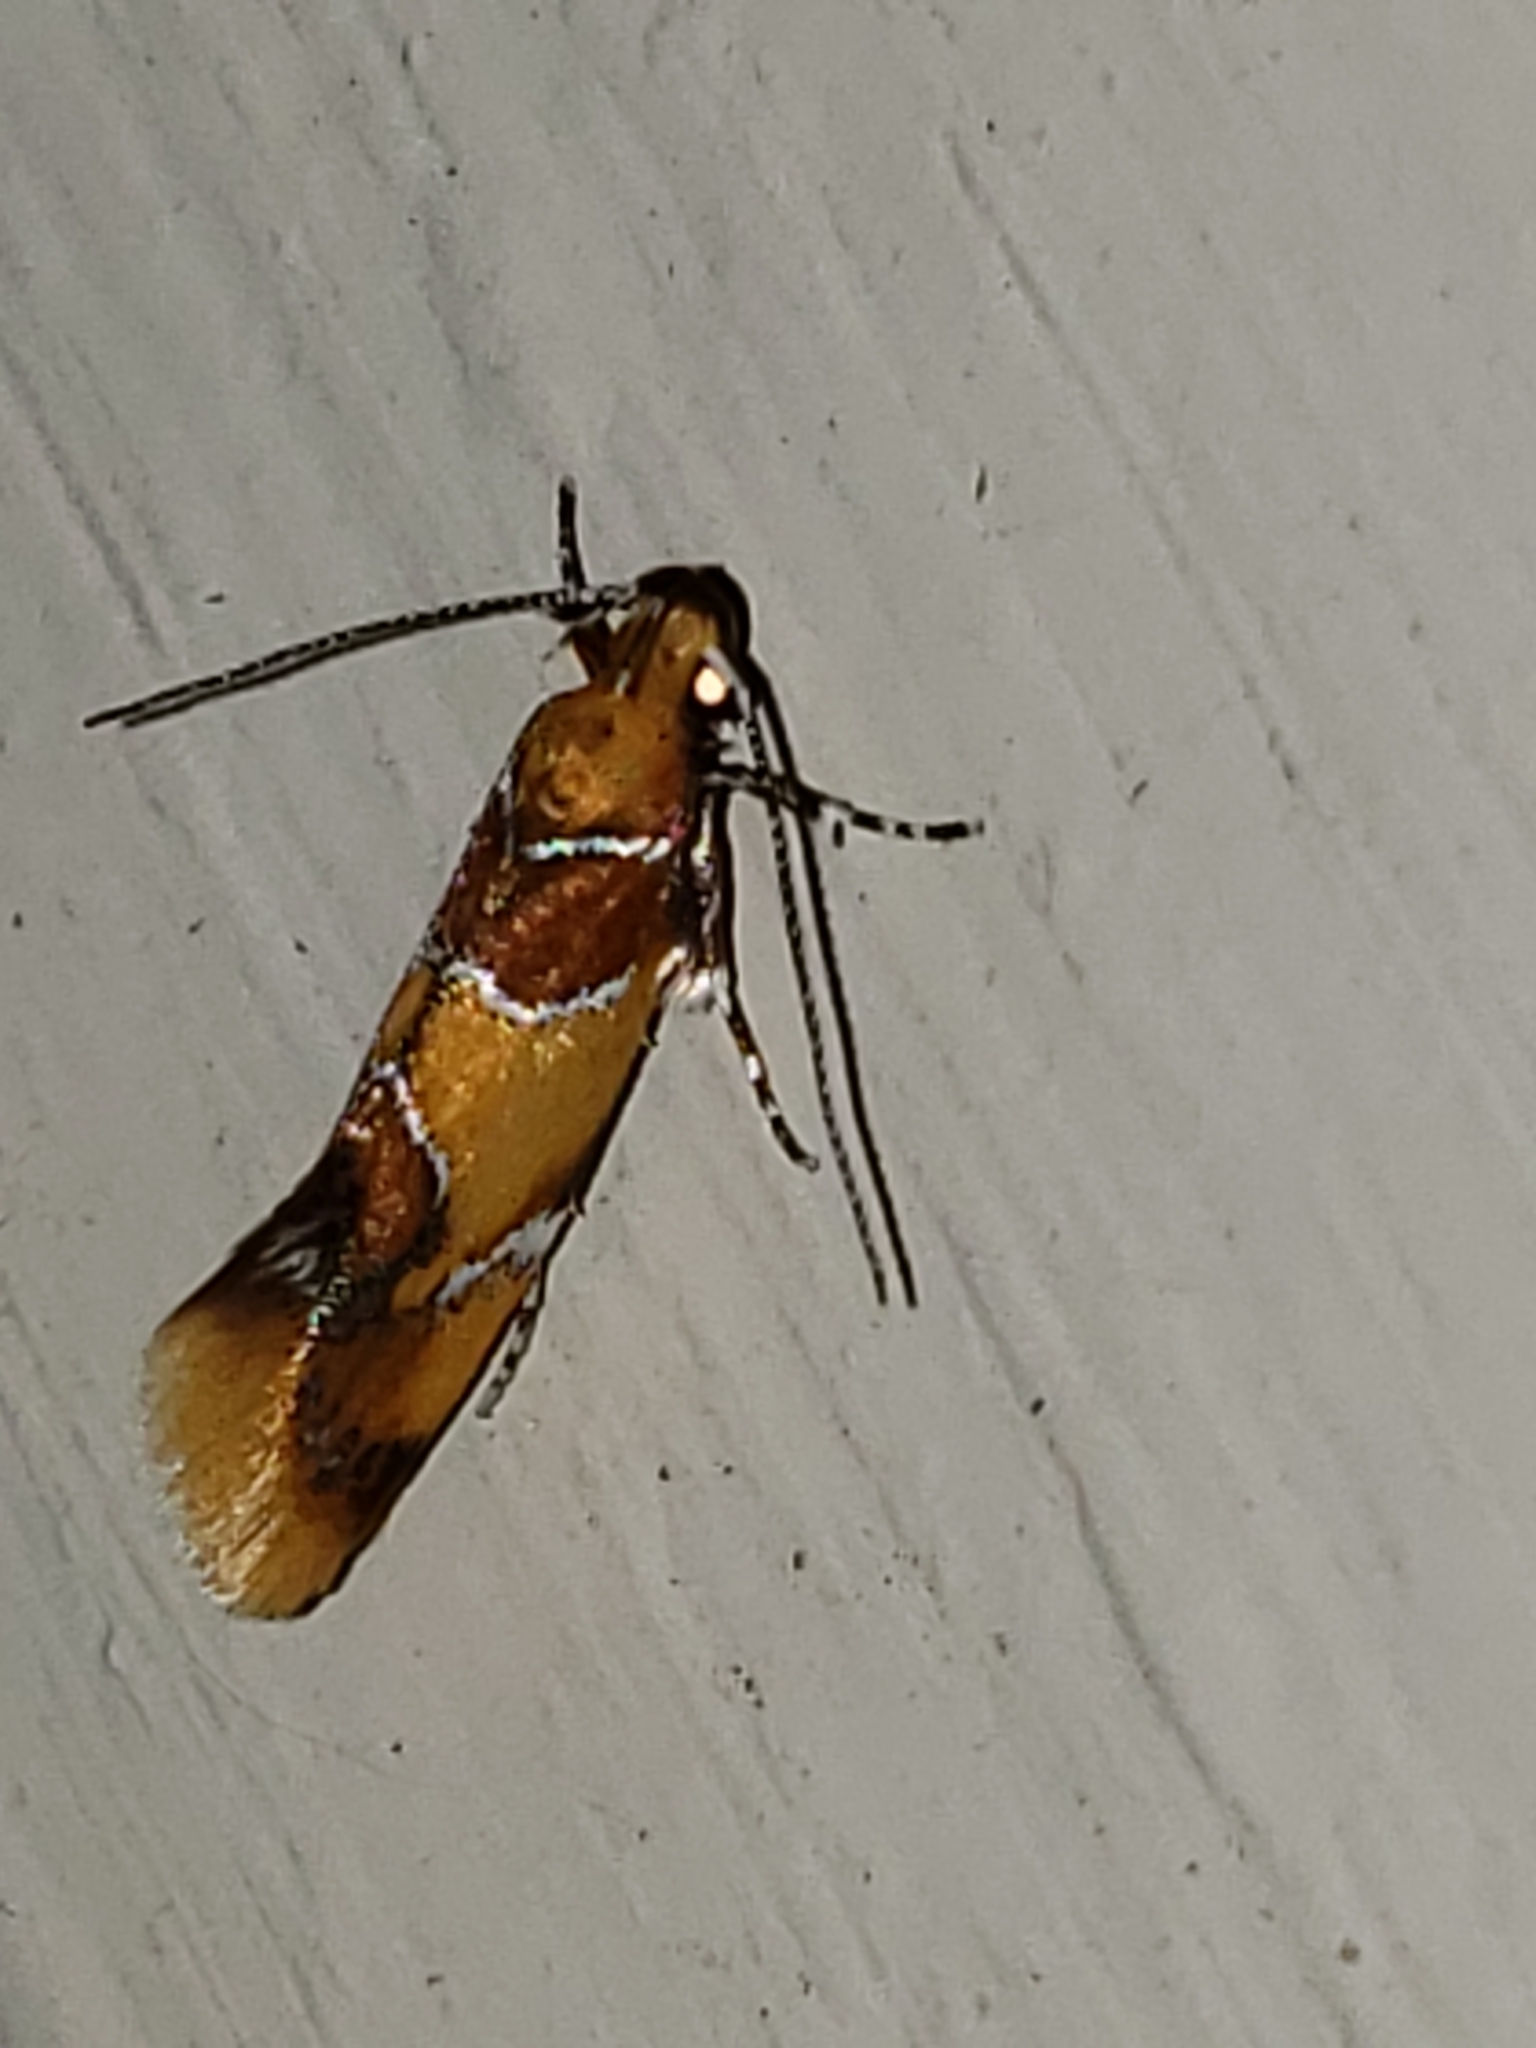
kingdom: Animalia
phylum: Arthropoda
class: Insecta
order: Lepidoptera
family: Oecophoridae
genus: Callima
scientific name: Callima argenticinctella
